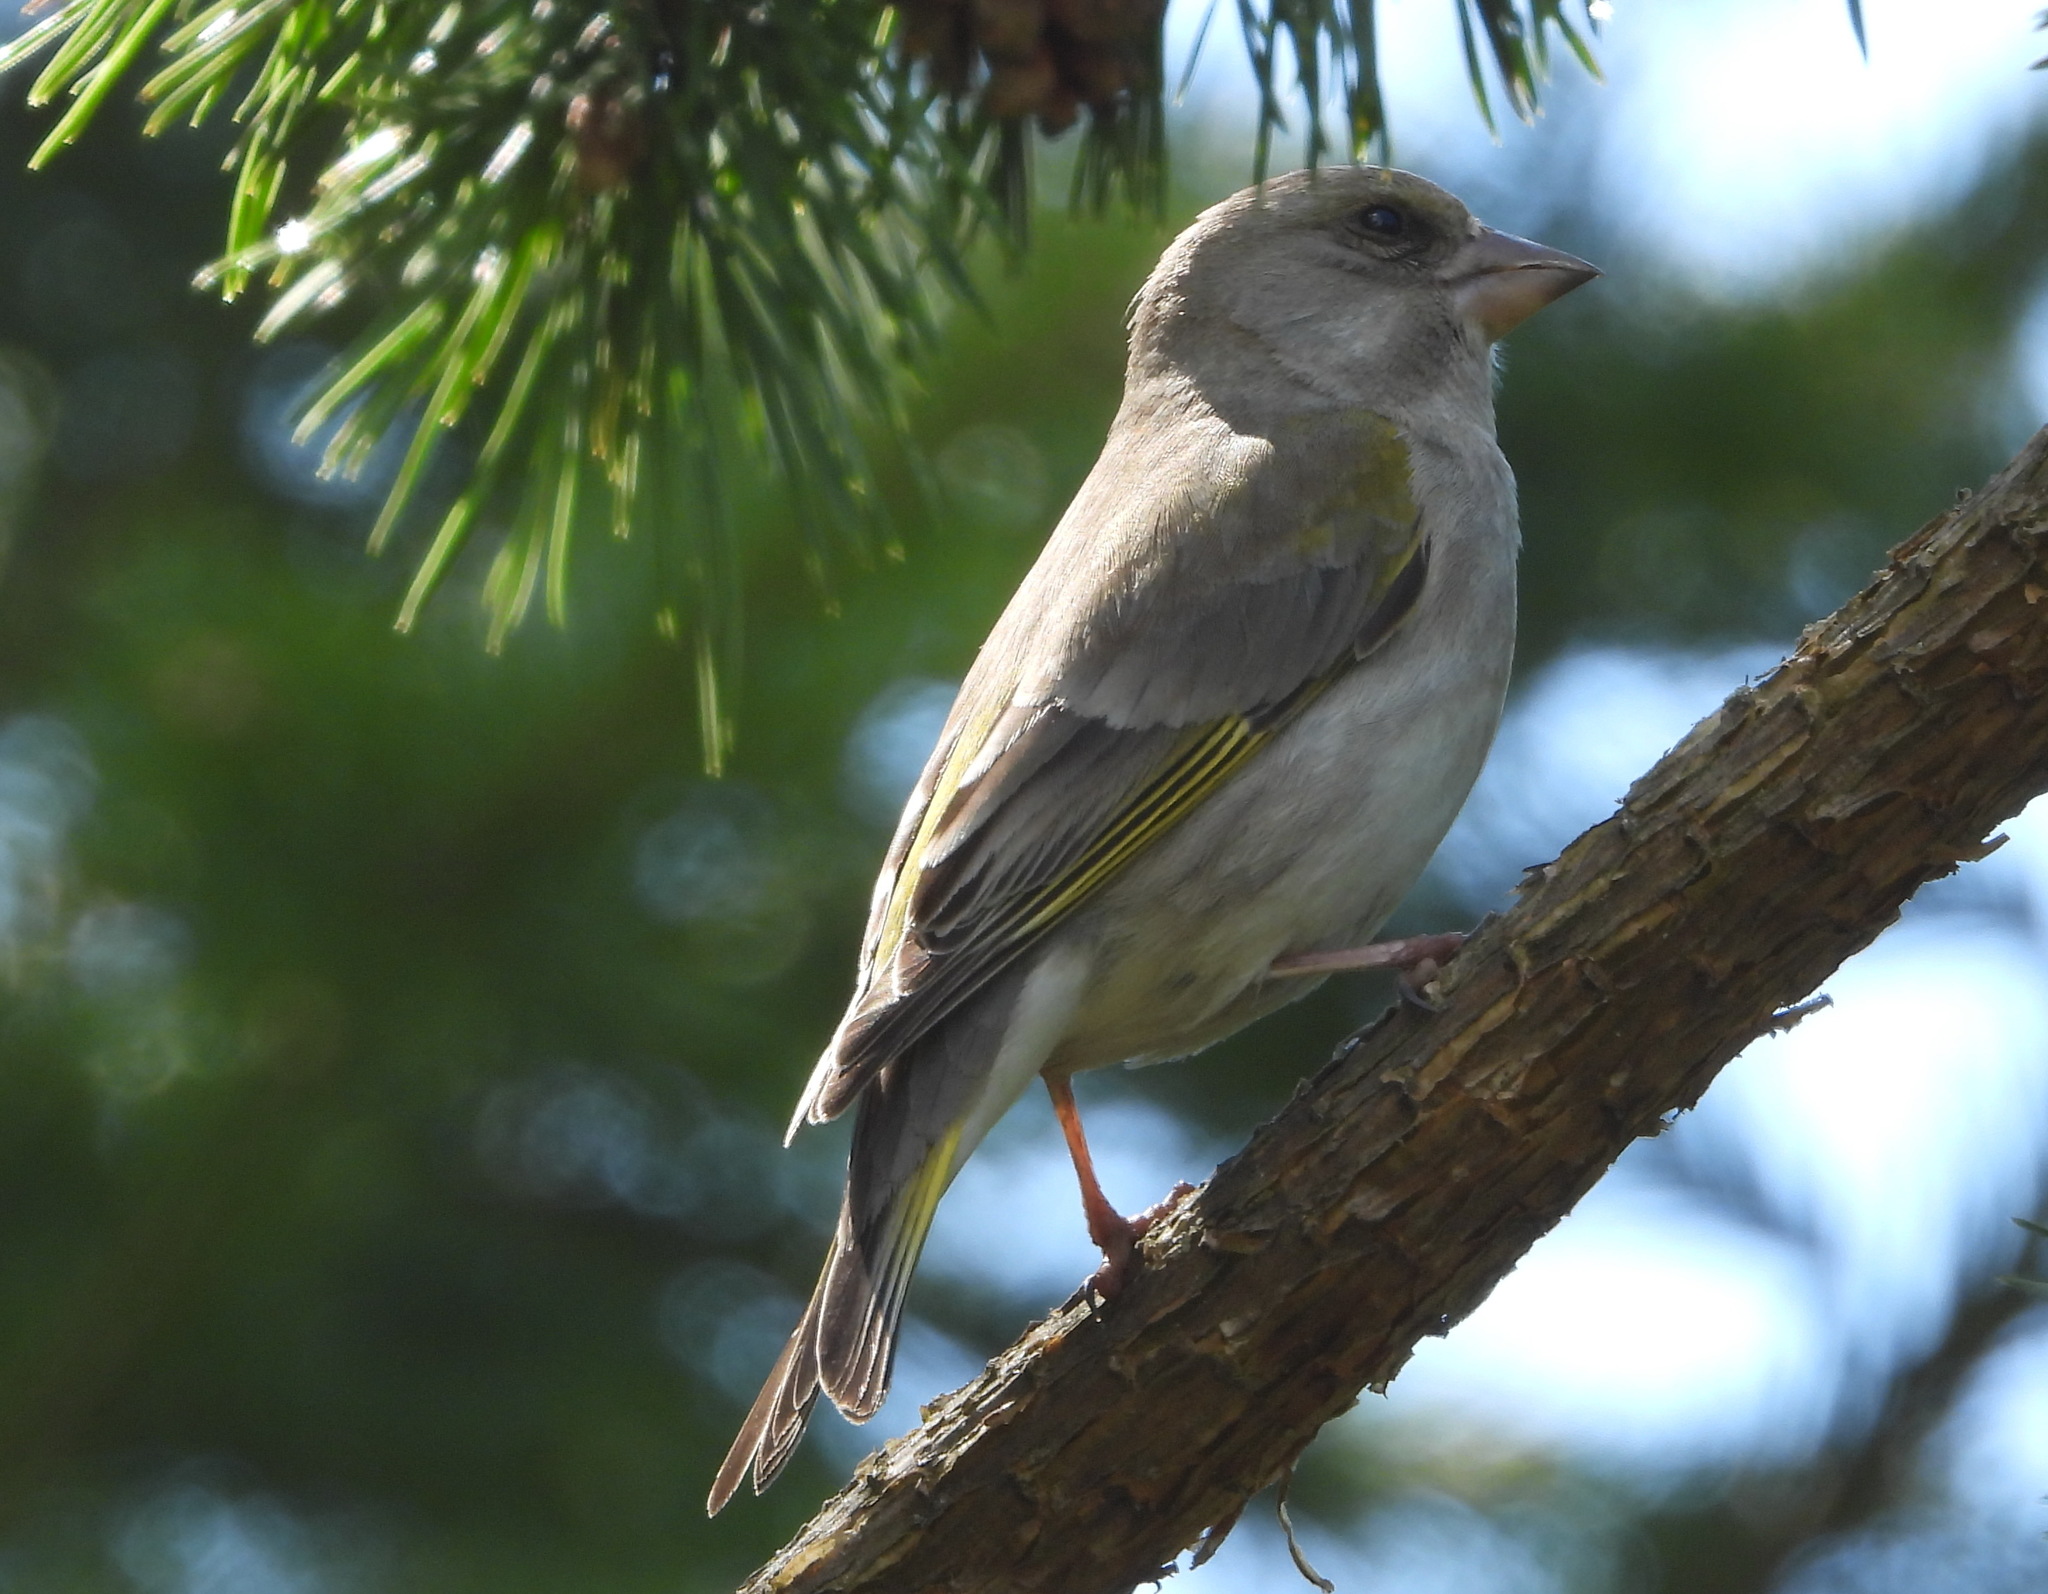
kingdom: Plantae
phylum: Tracheophyta
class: Liliopsida
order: Poales
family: Poaceae
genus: Chloris
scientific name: Chloris chloris
